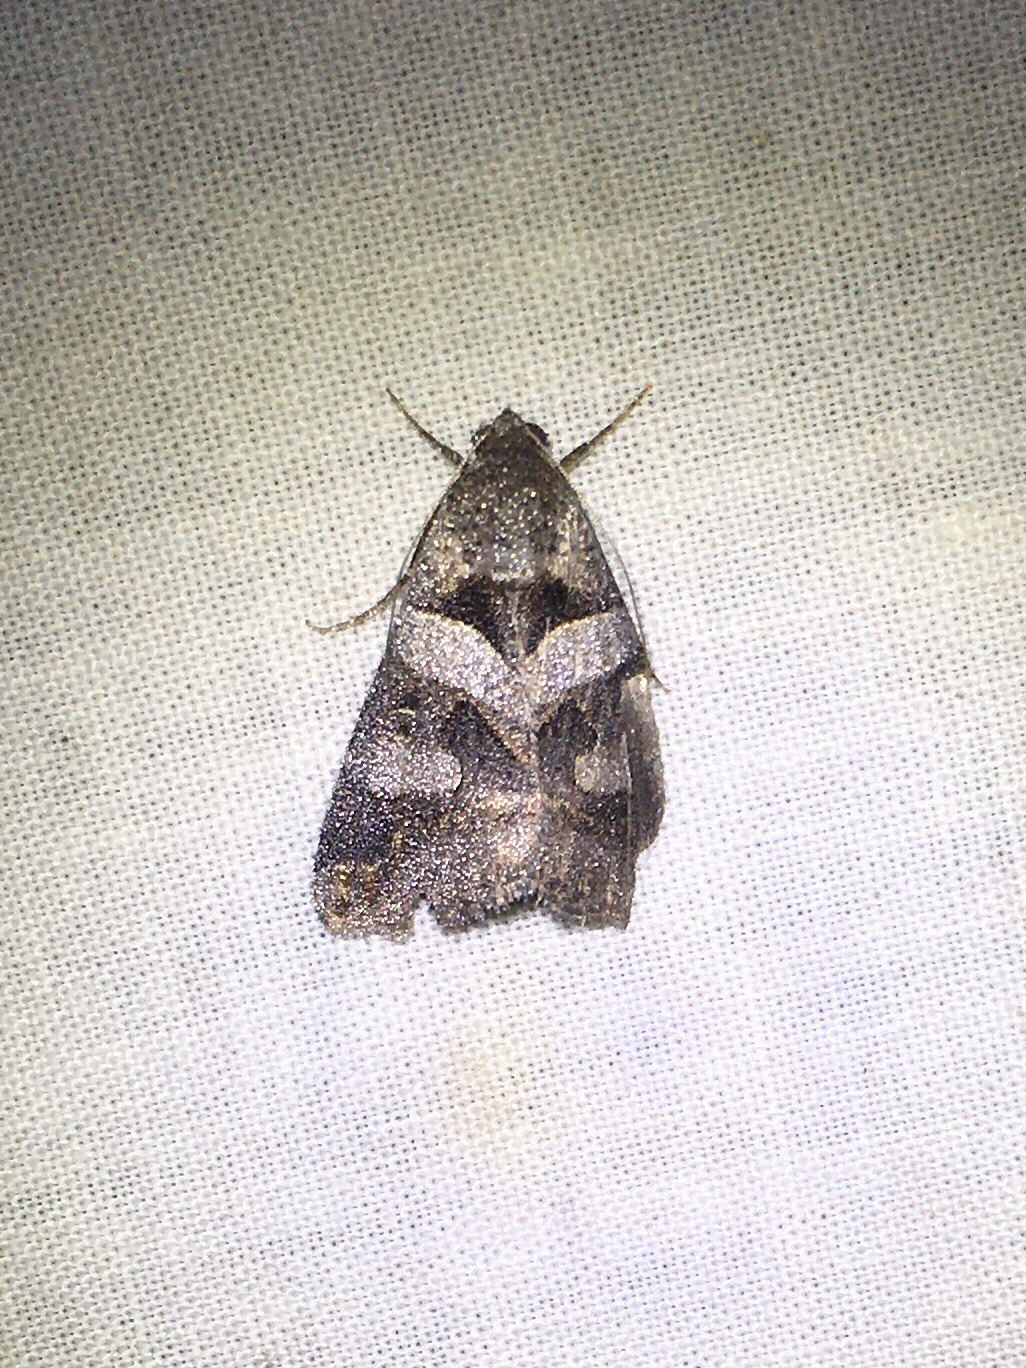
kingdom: Animalia
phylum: Arthropoda
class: Insecta
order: Lepidoptera
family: Erebidae
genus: Melipotis
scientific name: Melipotis florida
